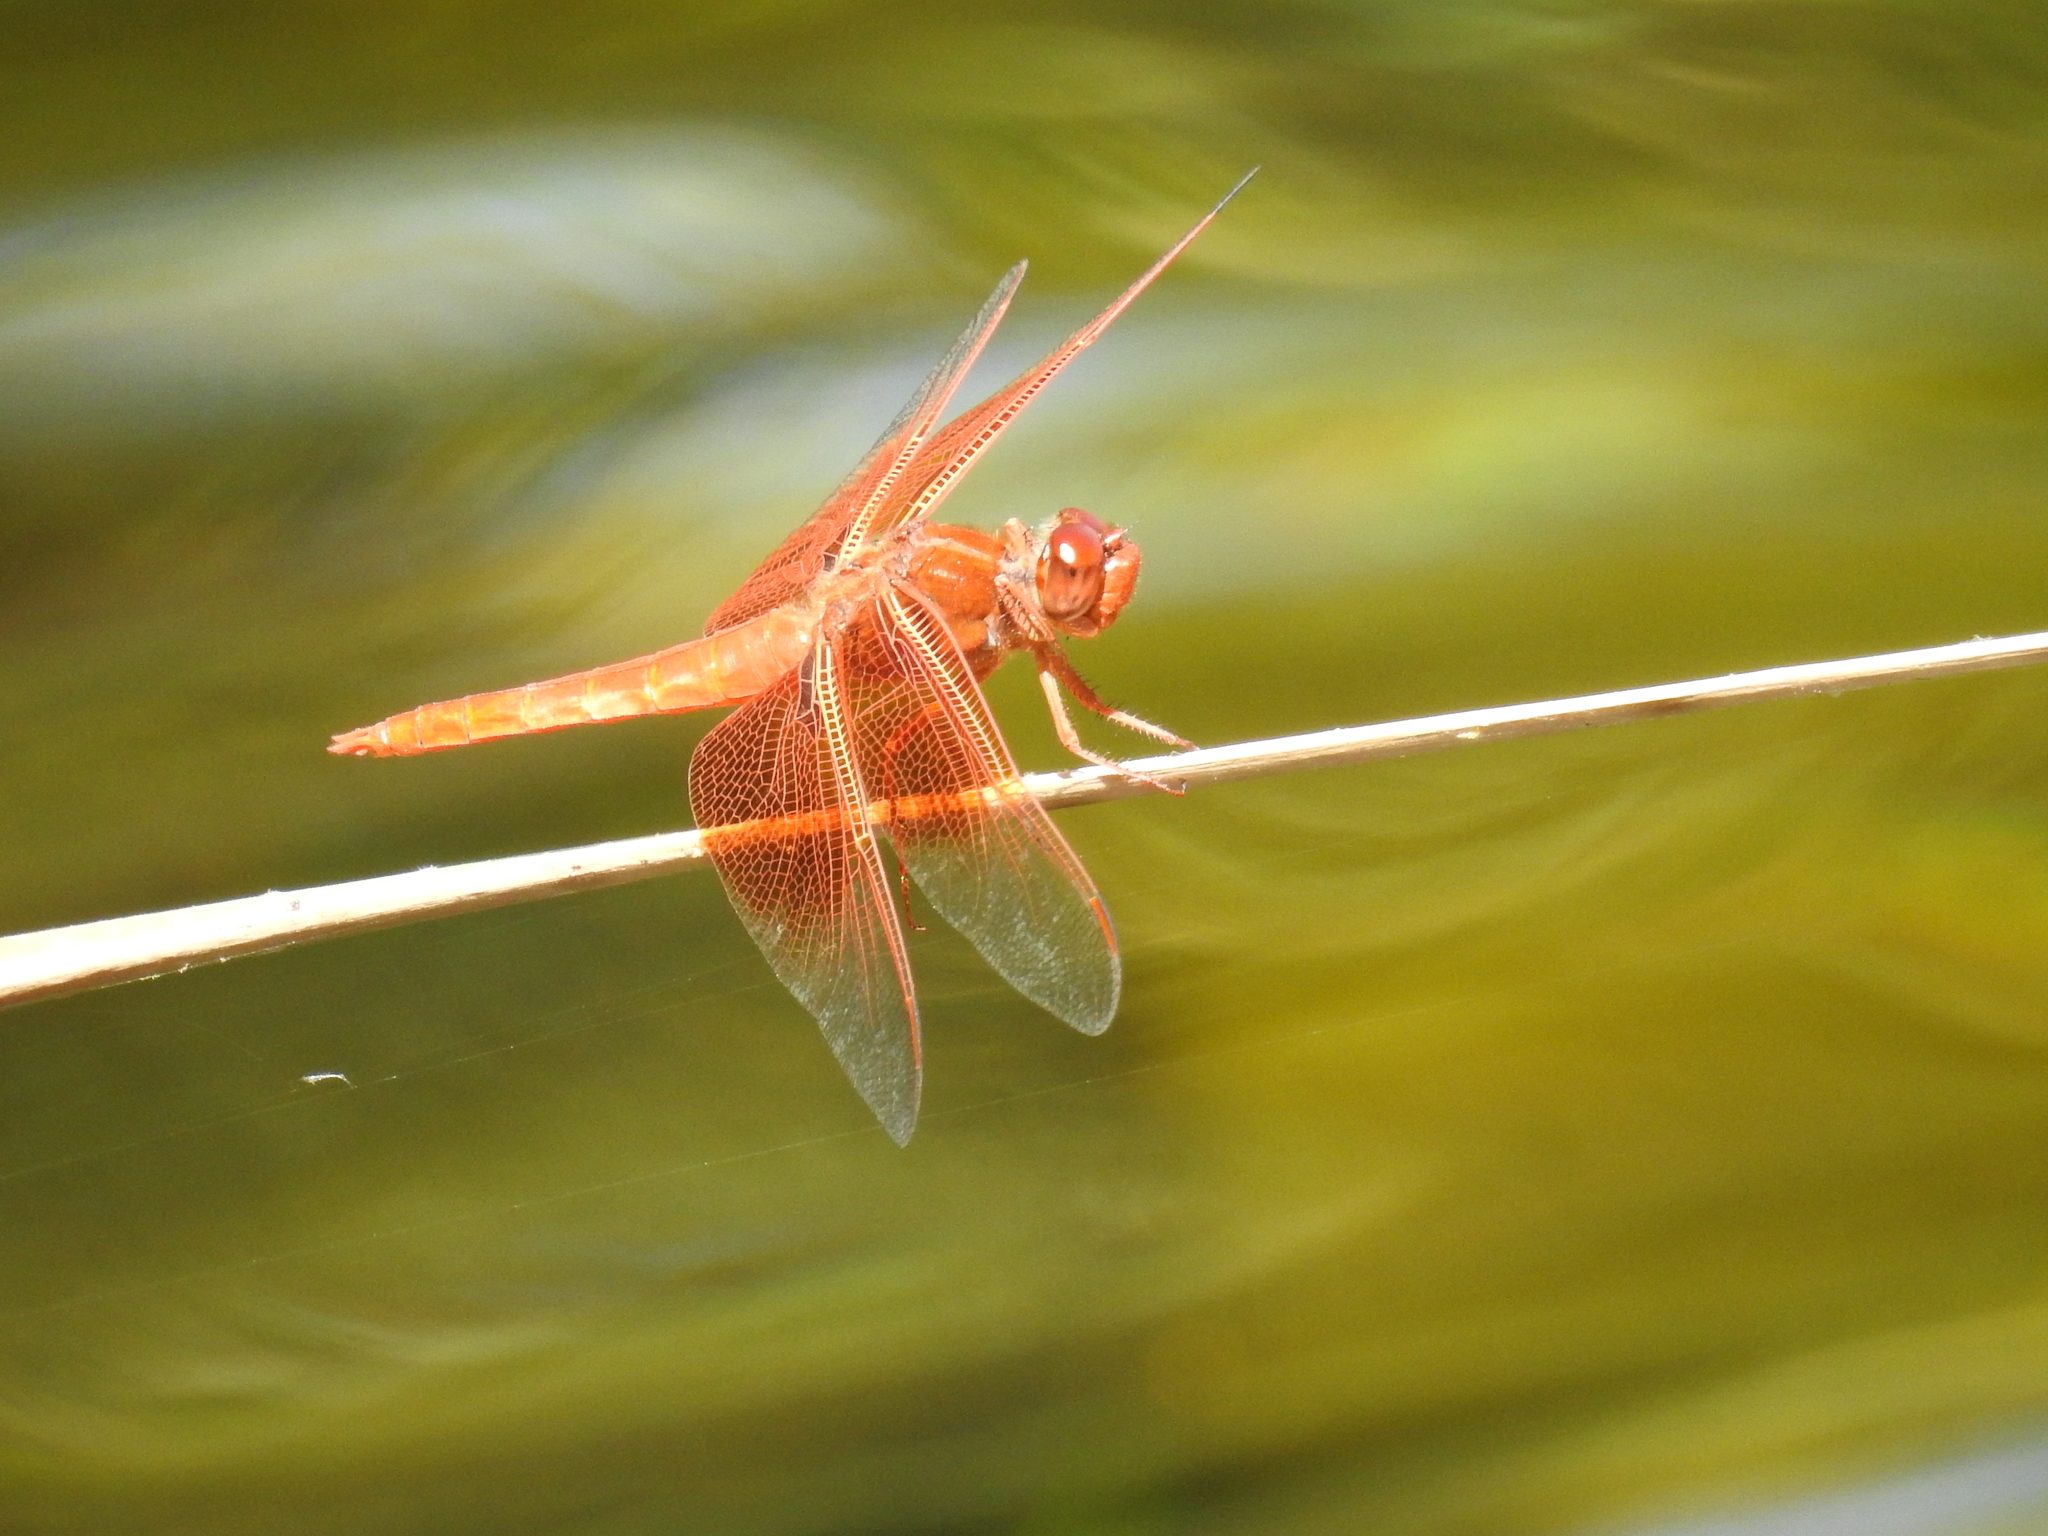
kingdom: Animalia
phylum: Arthropoda
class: Insecta
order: Odonata
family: Libellulidae
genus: Libellula
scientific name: Libellula saturata
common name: Flame skimmer
